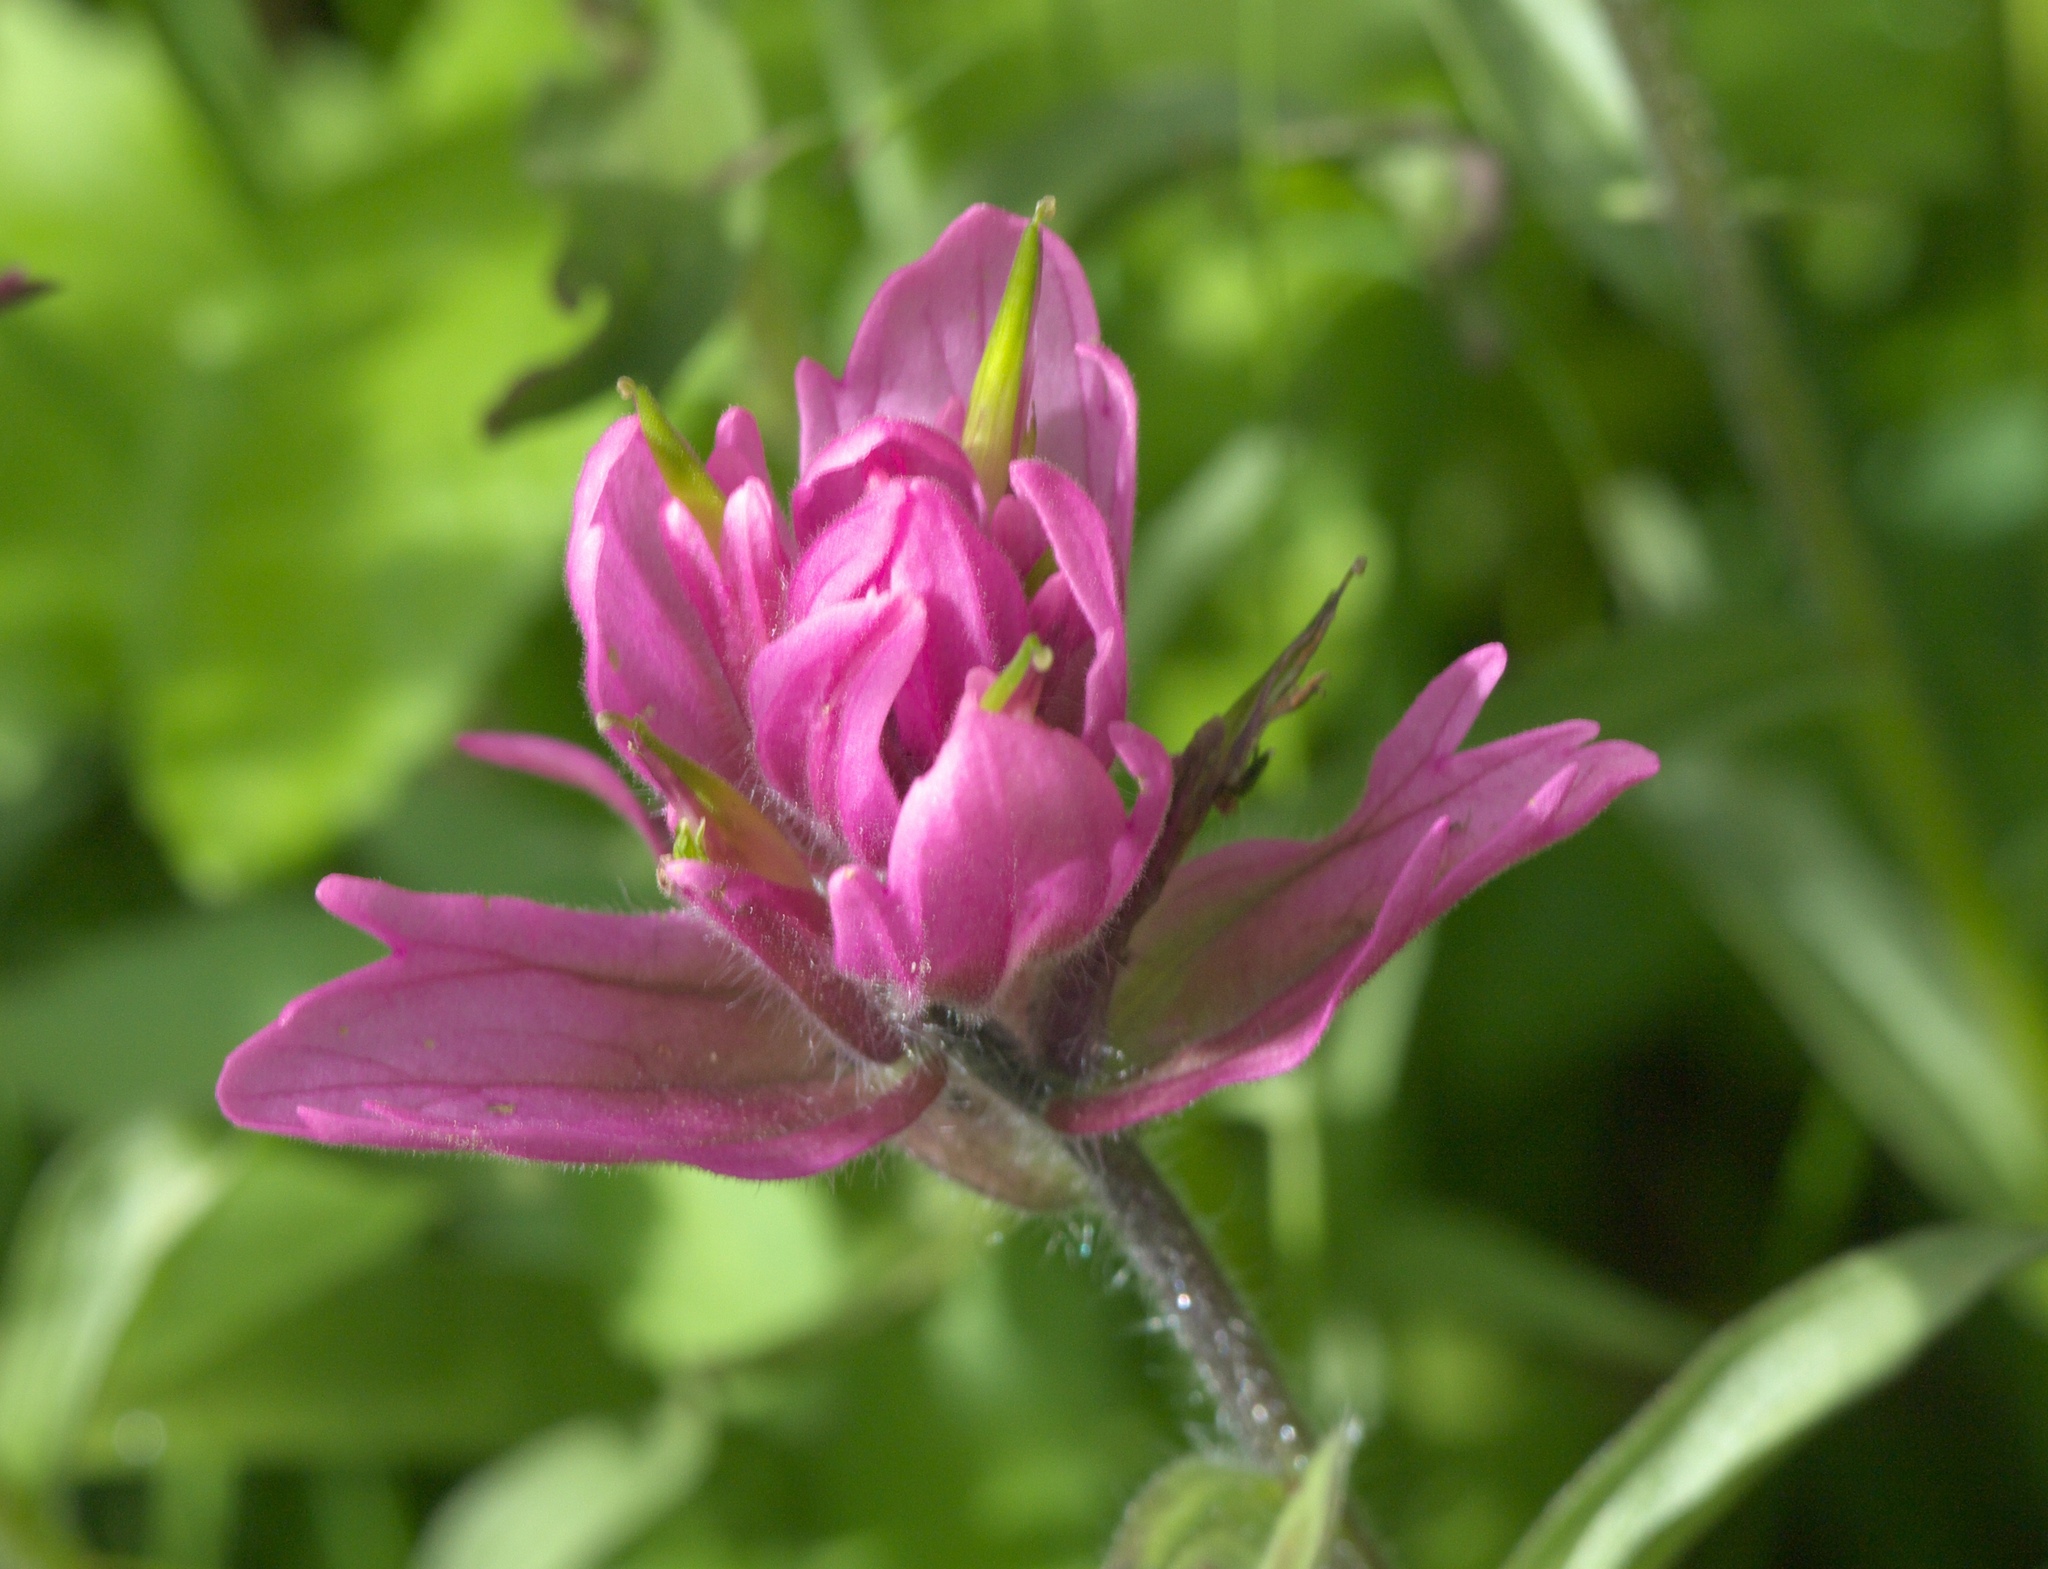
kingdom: Plantae
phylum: Tracheophyta
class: Magnoliopsida
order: Lamiales
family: Orobanchaceae
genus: Castilleja
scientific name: Castilleja rhexifolia
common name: Rocky mountain paintbrush
